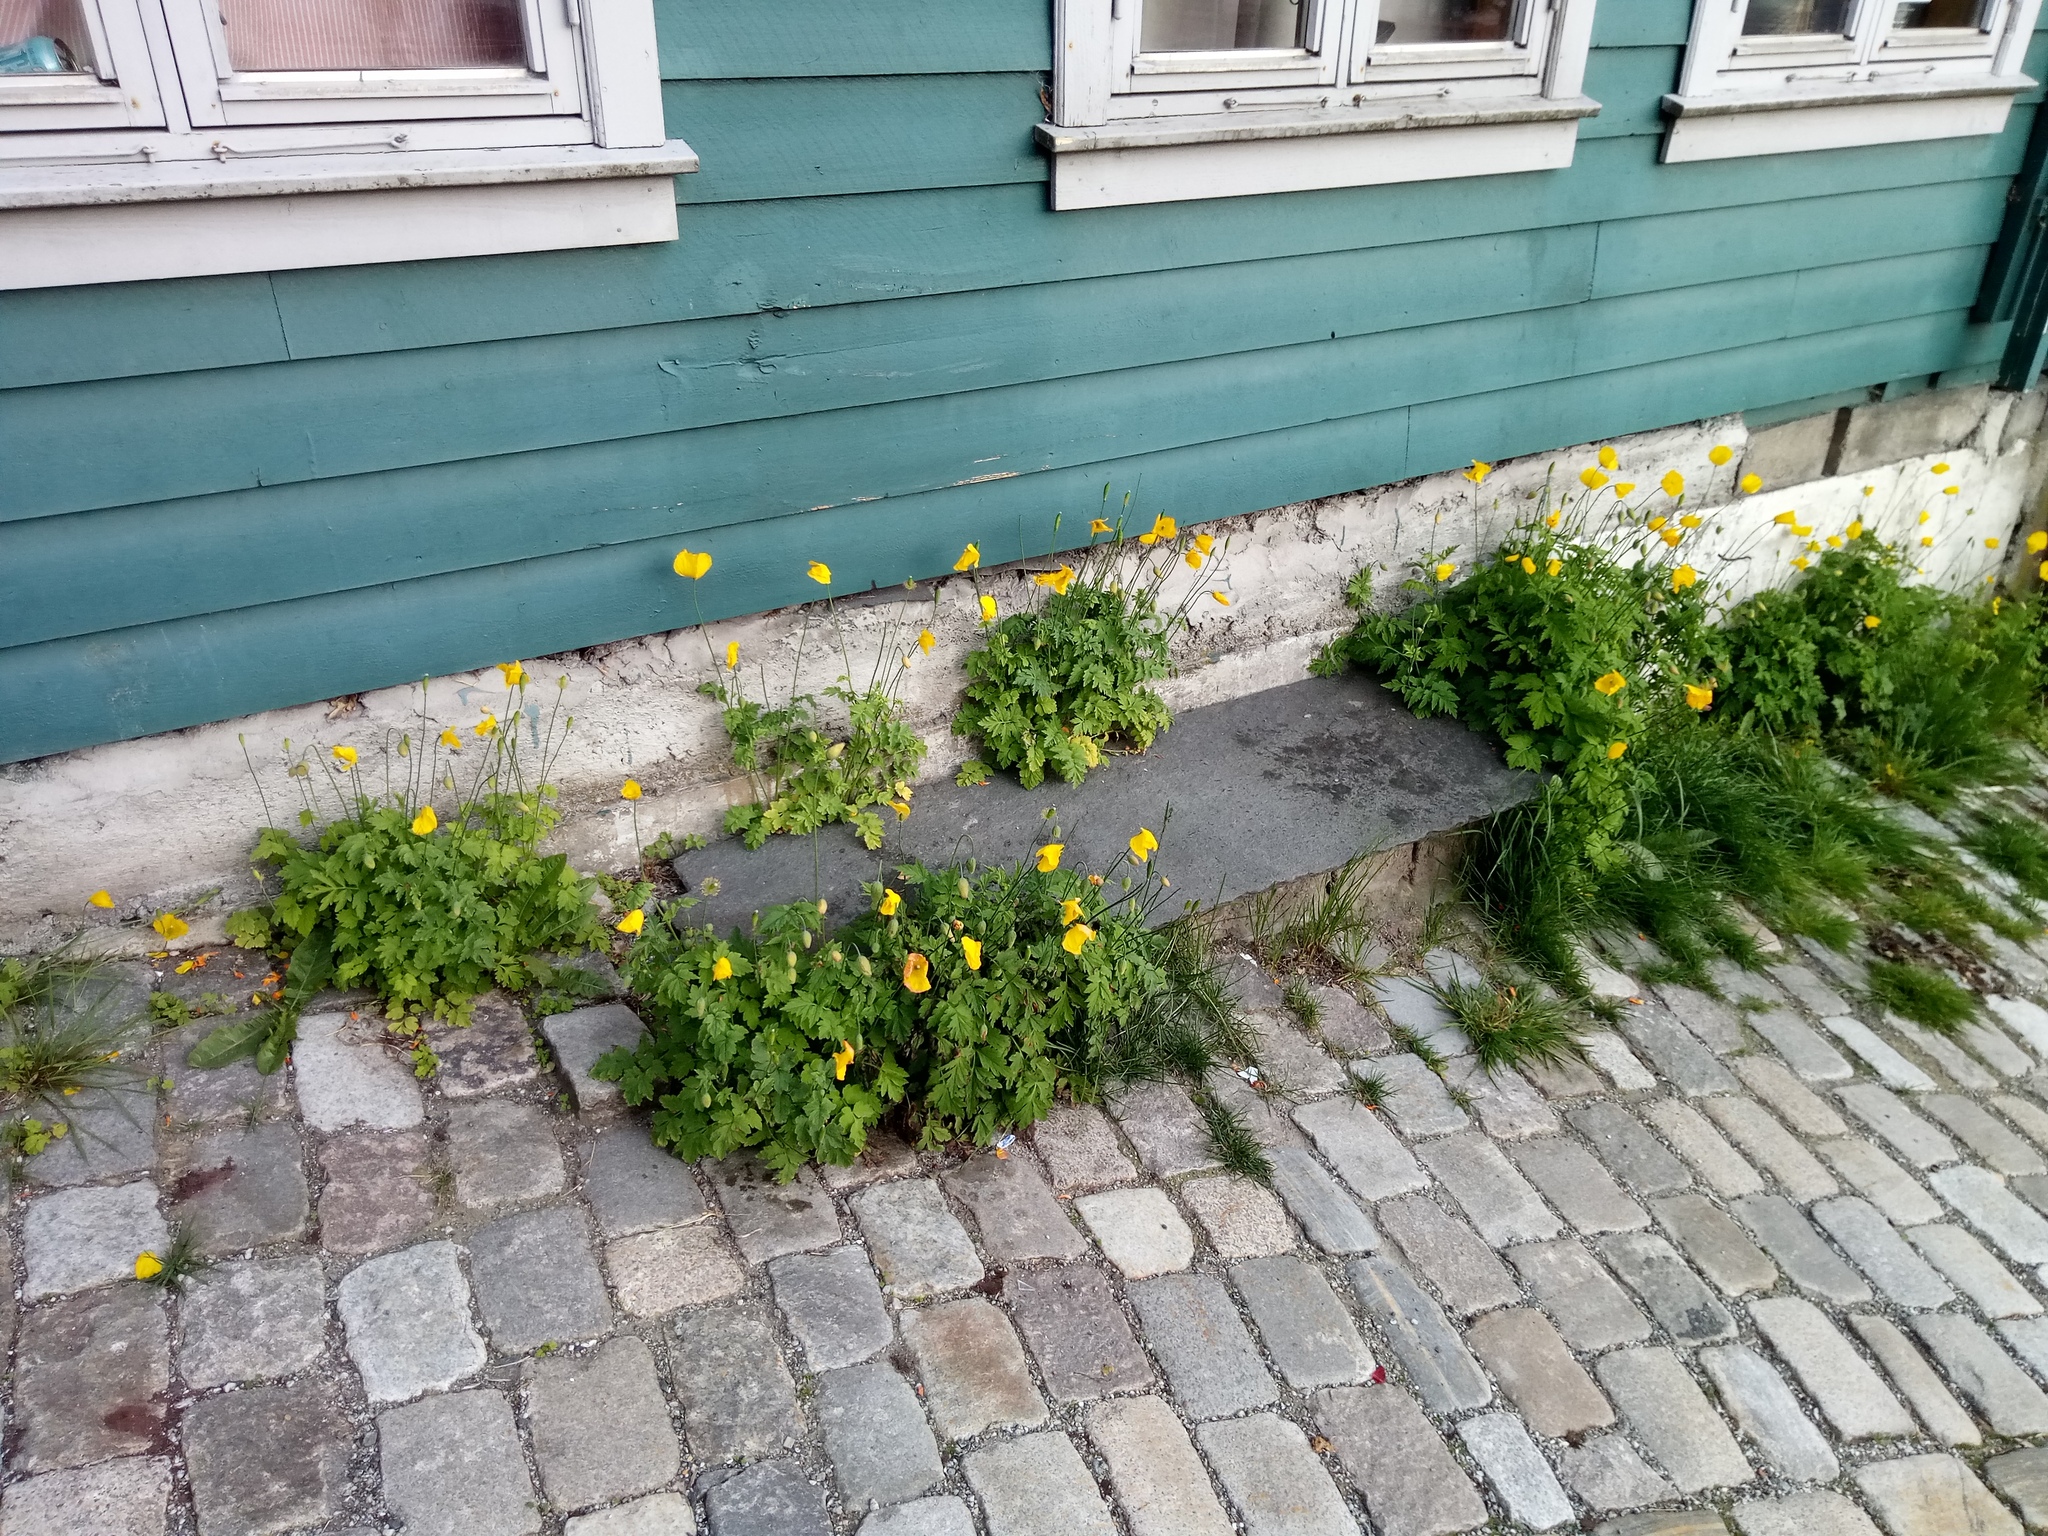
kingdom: Plantae
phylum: Tracheophyta
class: Magnoliopsida
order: Ranunculales
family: Papaveraceae
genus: Papaver
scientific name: Papaver cambricum
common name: Poppy
